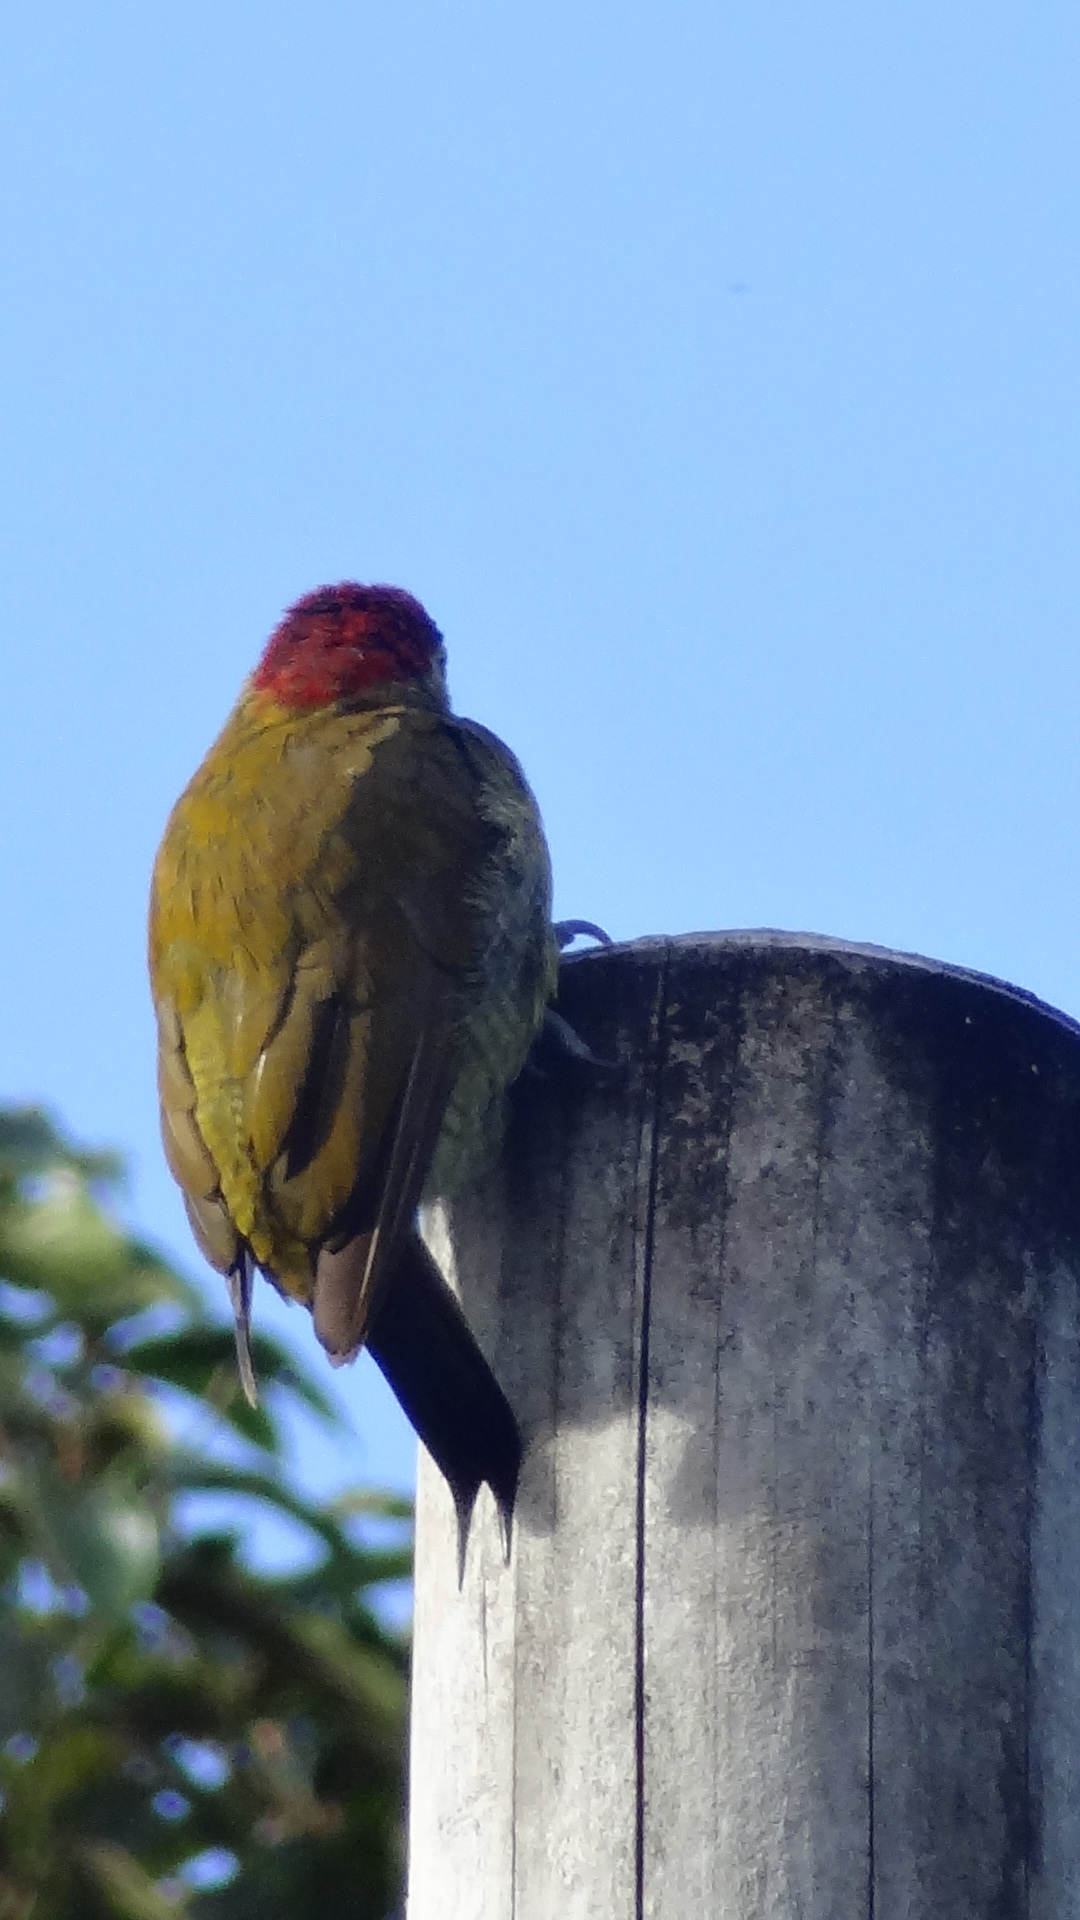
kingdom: Animalia
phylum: Chordata
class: Aves
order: Piciformes
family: Picidae
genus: Colaptes
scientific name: Colaptes rubiginosus
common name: Golden-olive woodpecker
